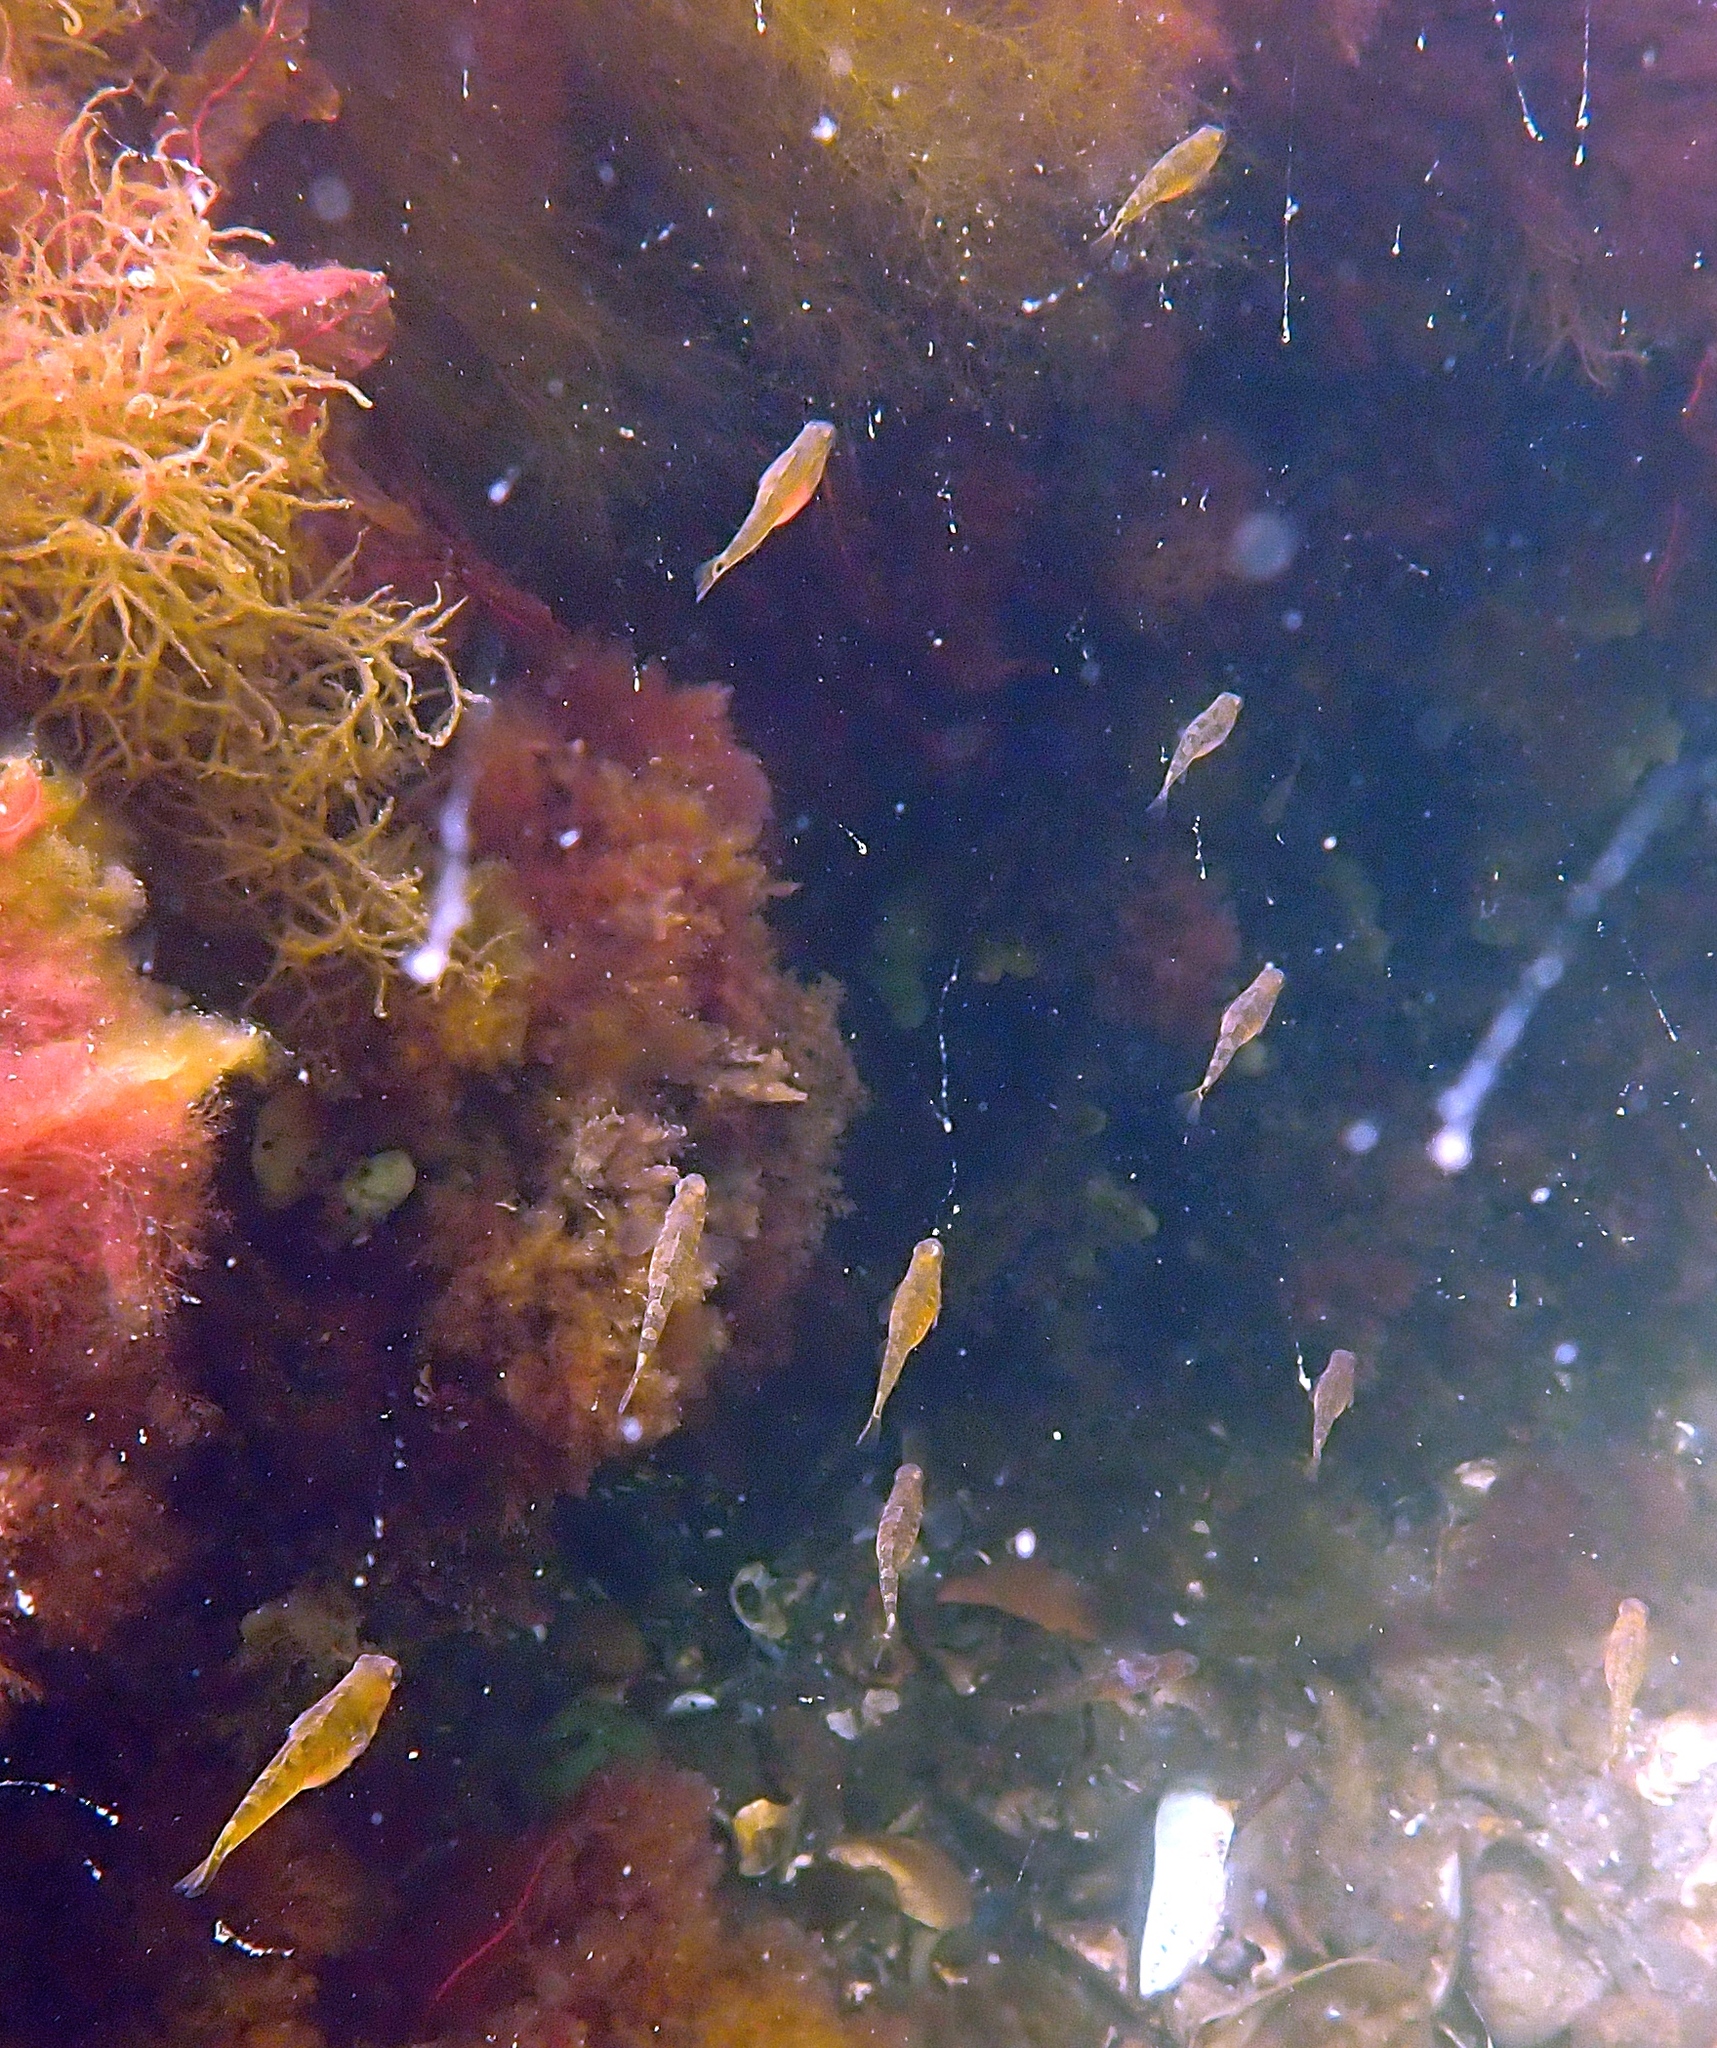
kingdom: Animalia
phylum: Chordata
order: Perciformes
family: Gobiidae
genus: Gobiusculus
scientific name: Gobiusculus flavescens
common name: Two-spotted goby
